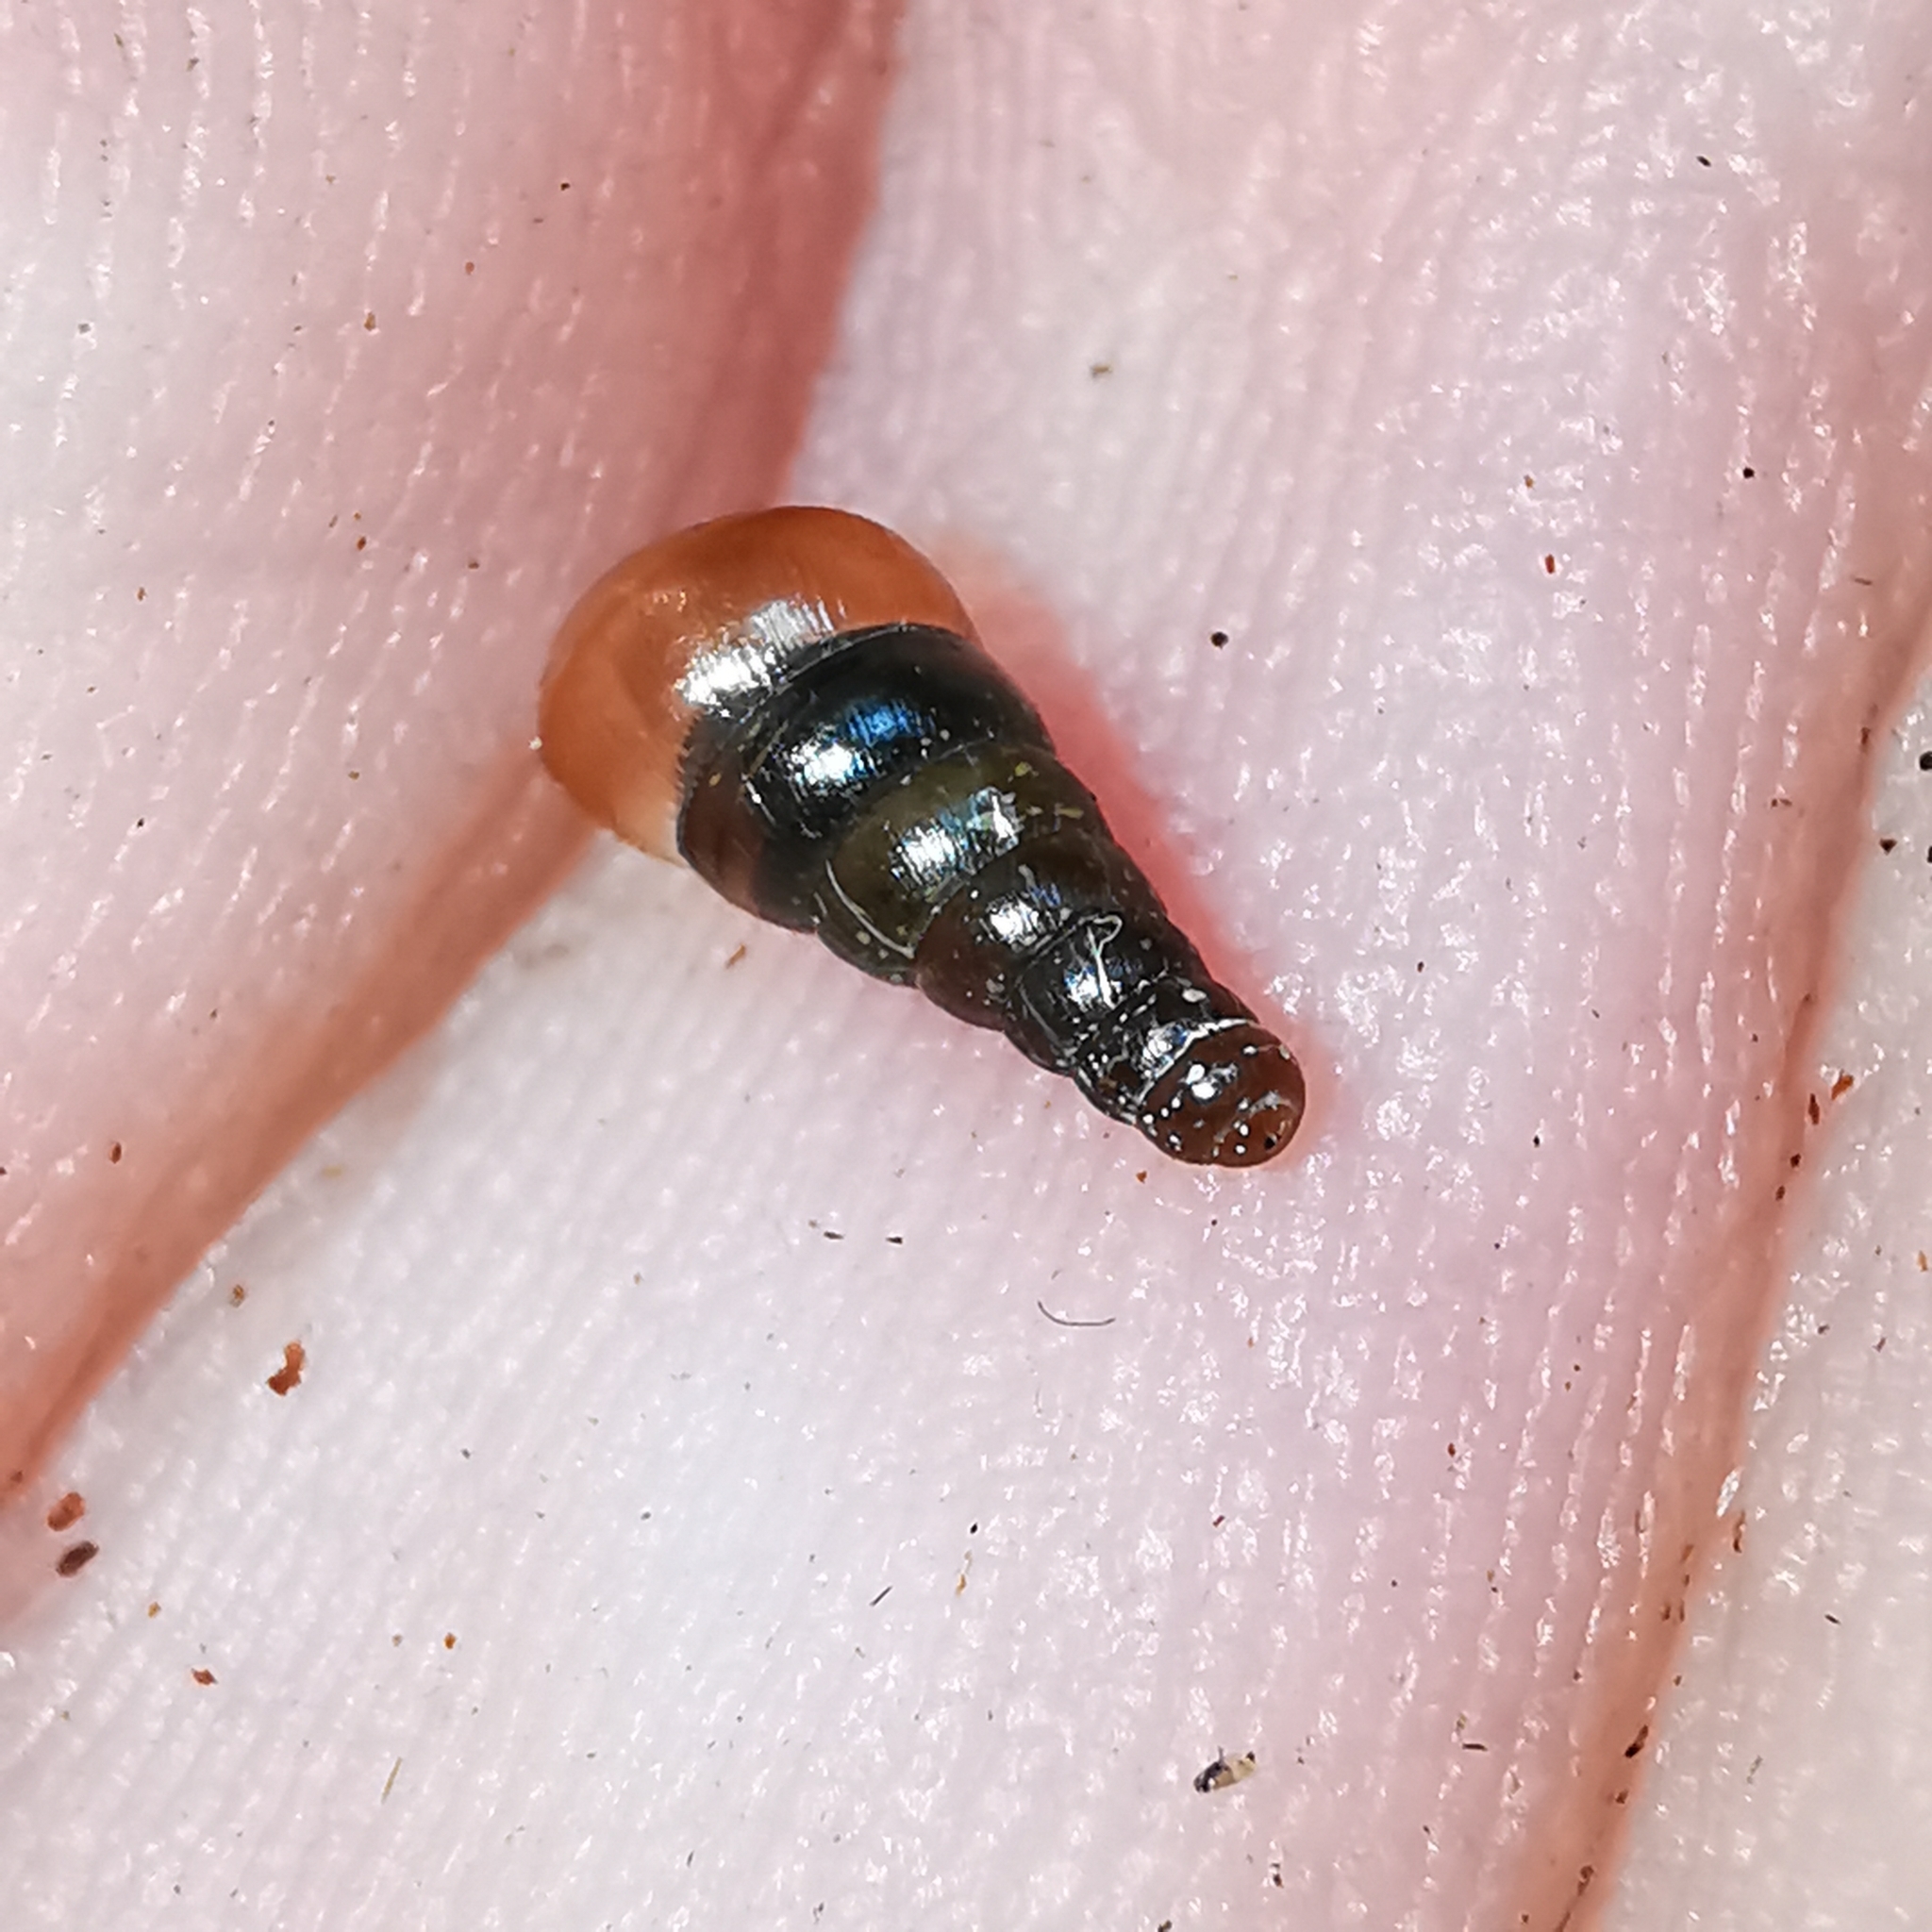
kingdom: Animalia
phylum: Mollusca
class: Gastropoda
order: Stylommatophora
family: Clausiliidae
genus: Cochlodina
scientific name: Cochlodina laminata
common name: Plaited door snail
